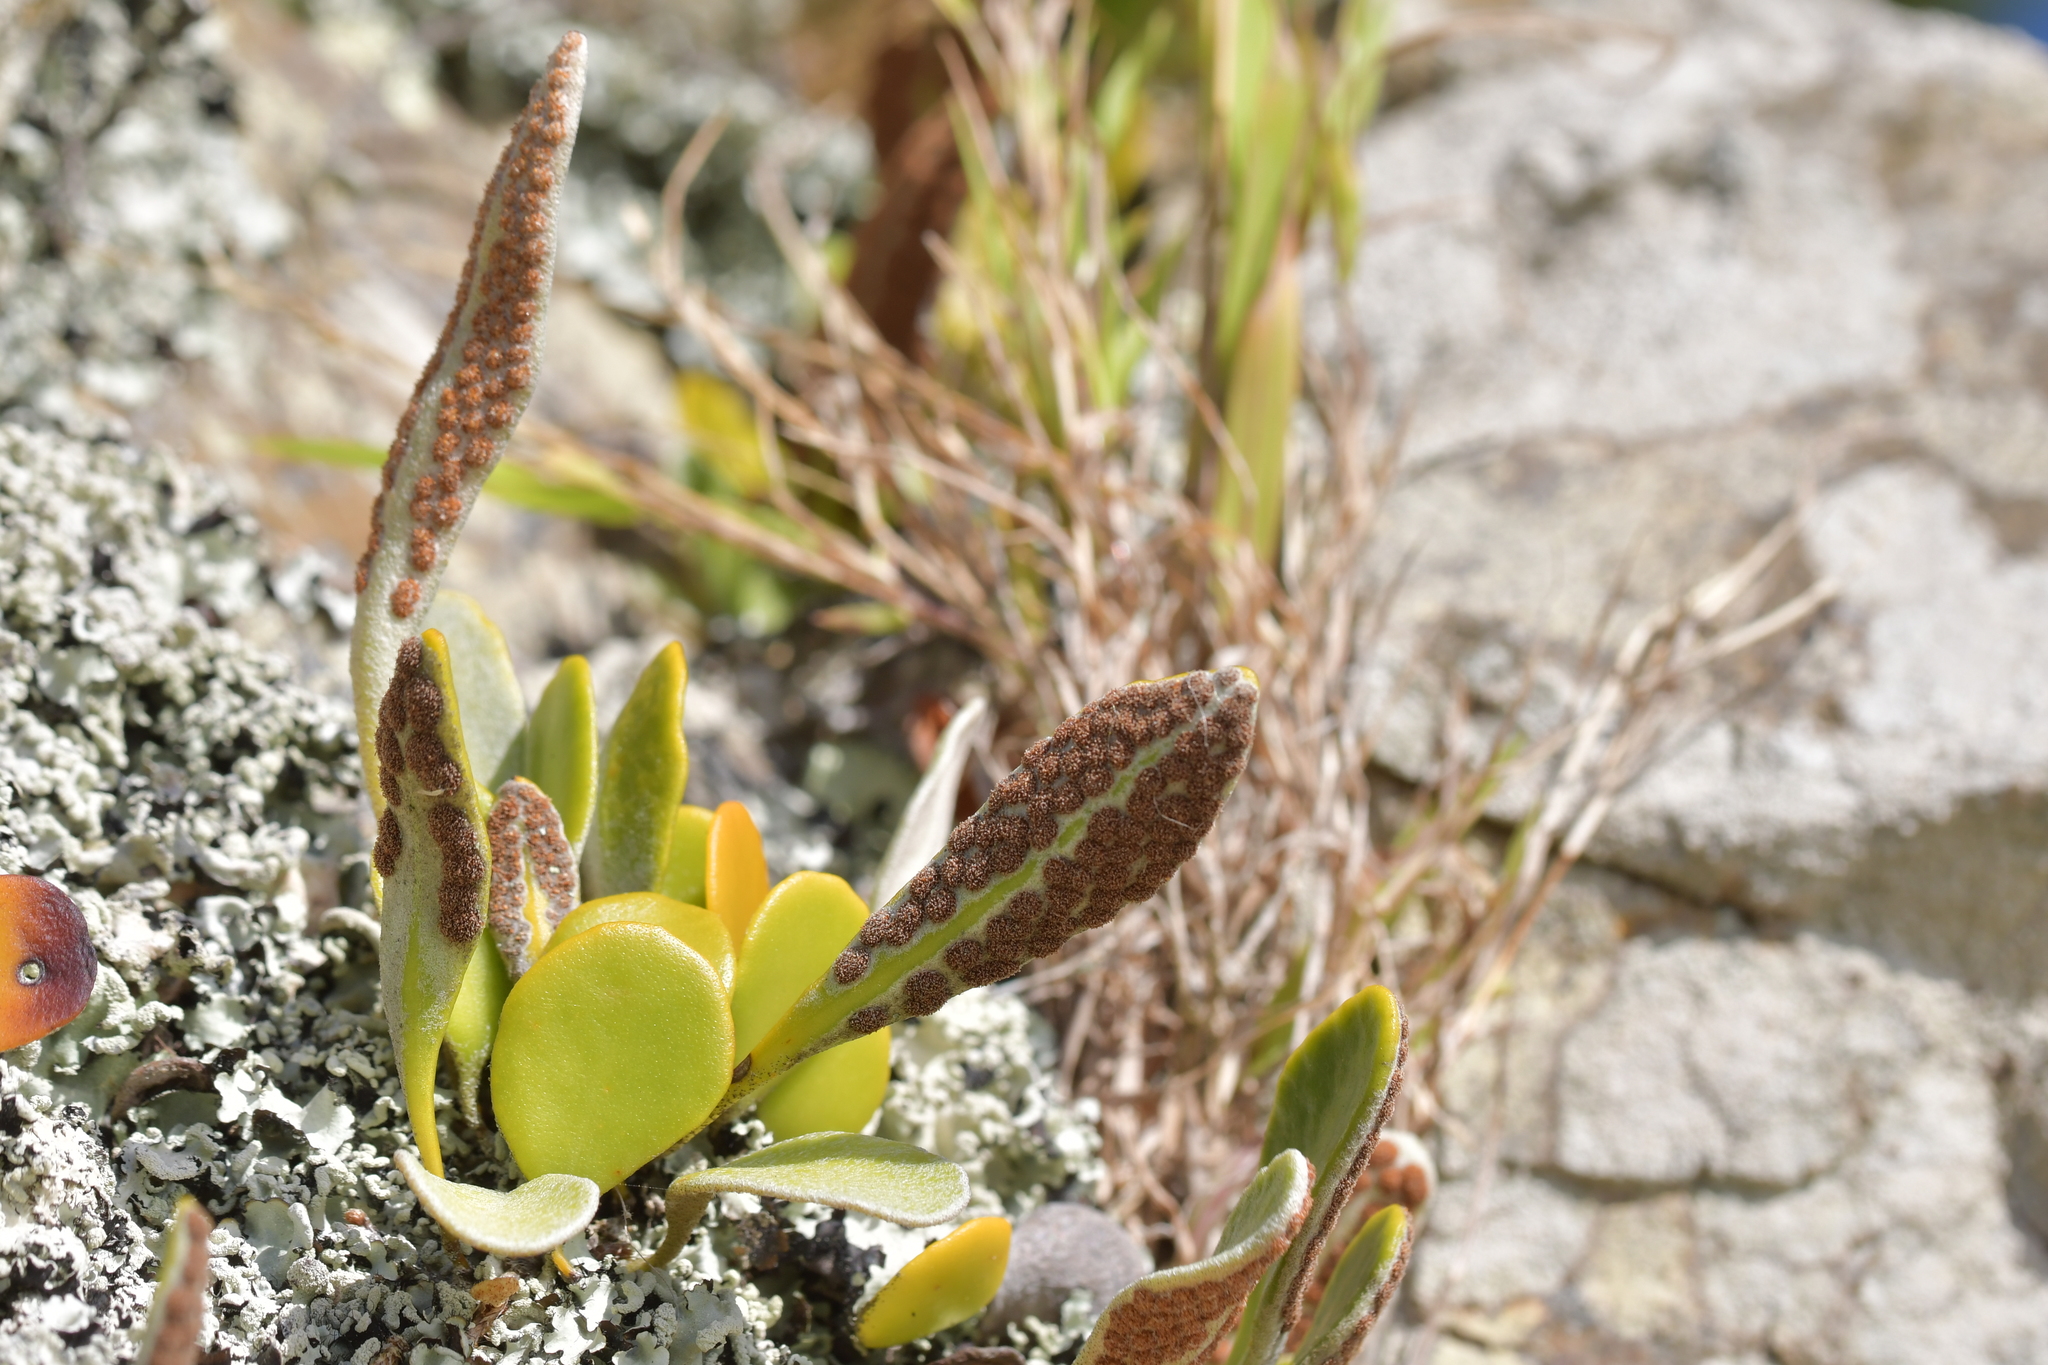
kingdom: Plantae
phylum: Tracheophyta
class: Polypodiopsida
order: Polypodiales
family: Polypodiaceae
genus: Pyrrosia
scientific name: Pyrrosia eleagnifolia
